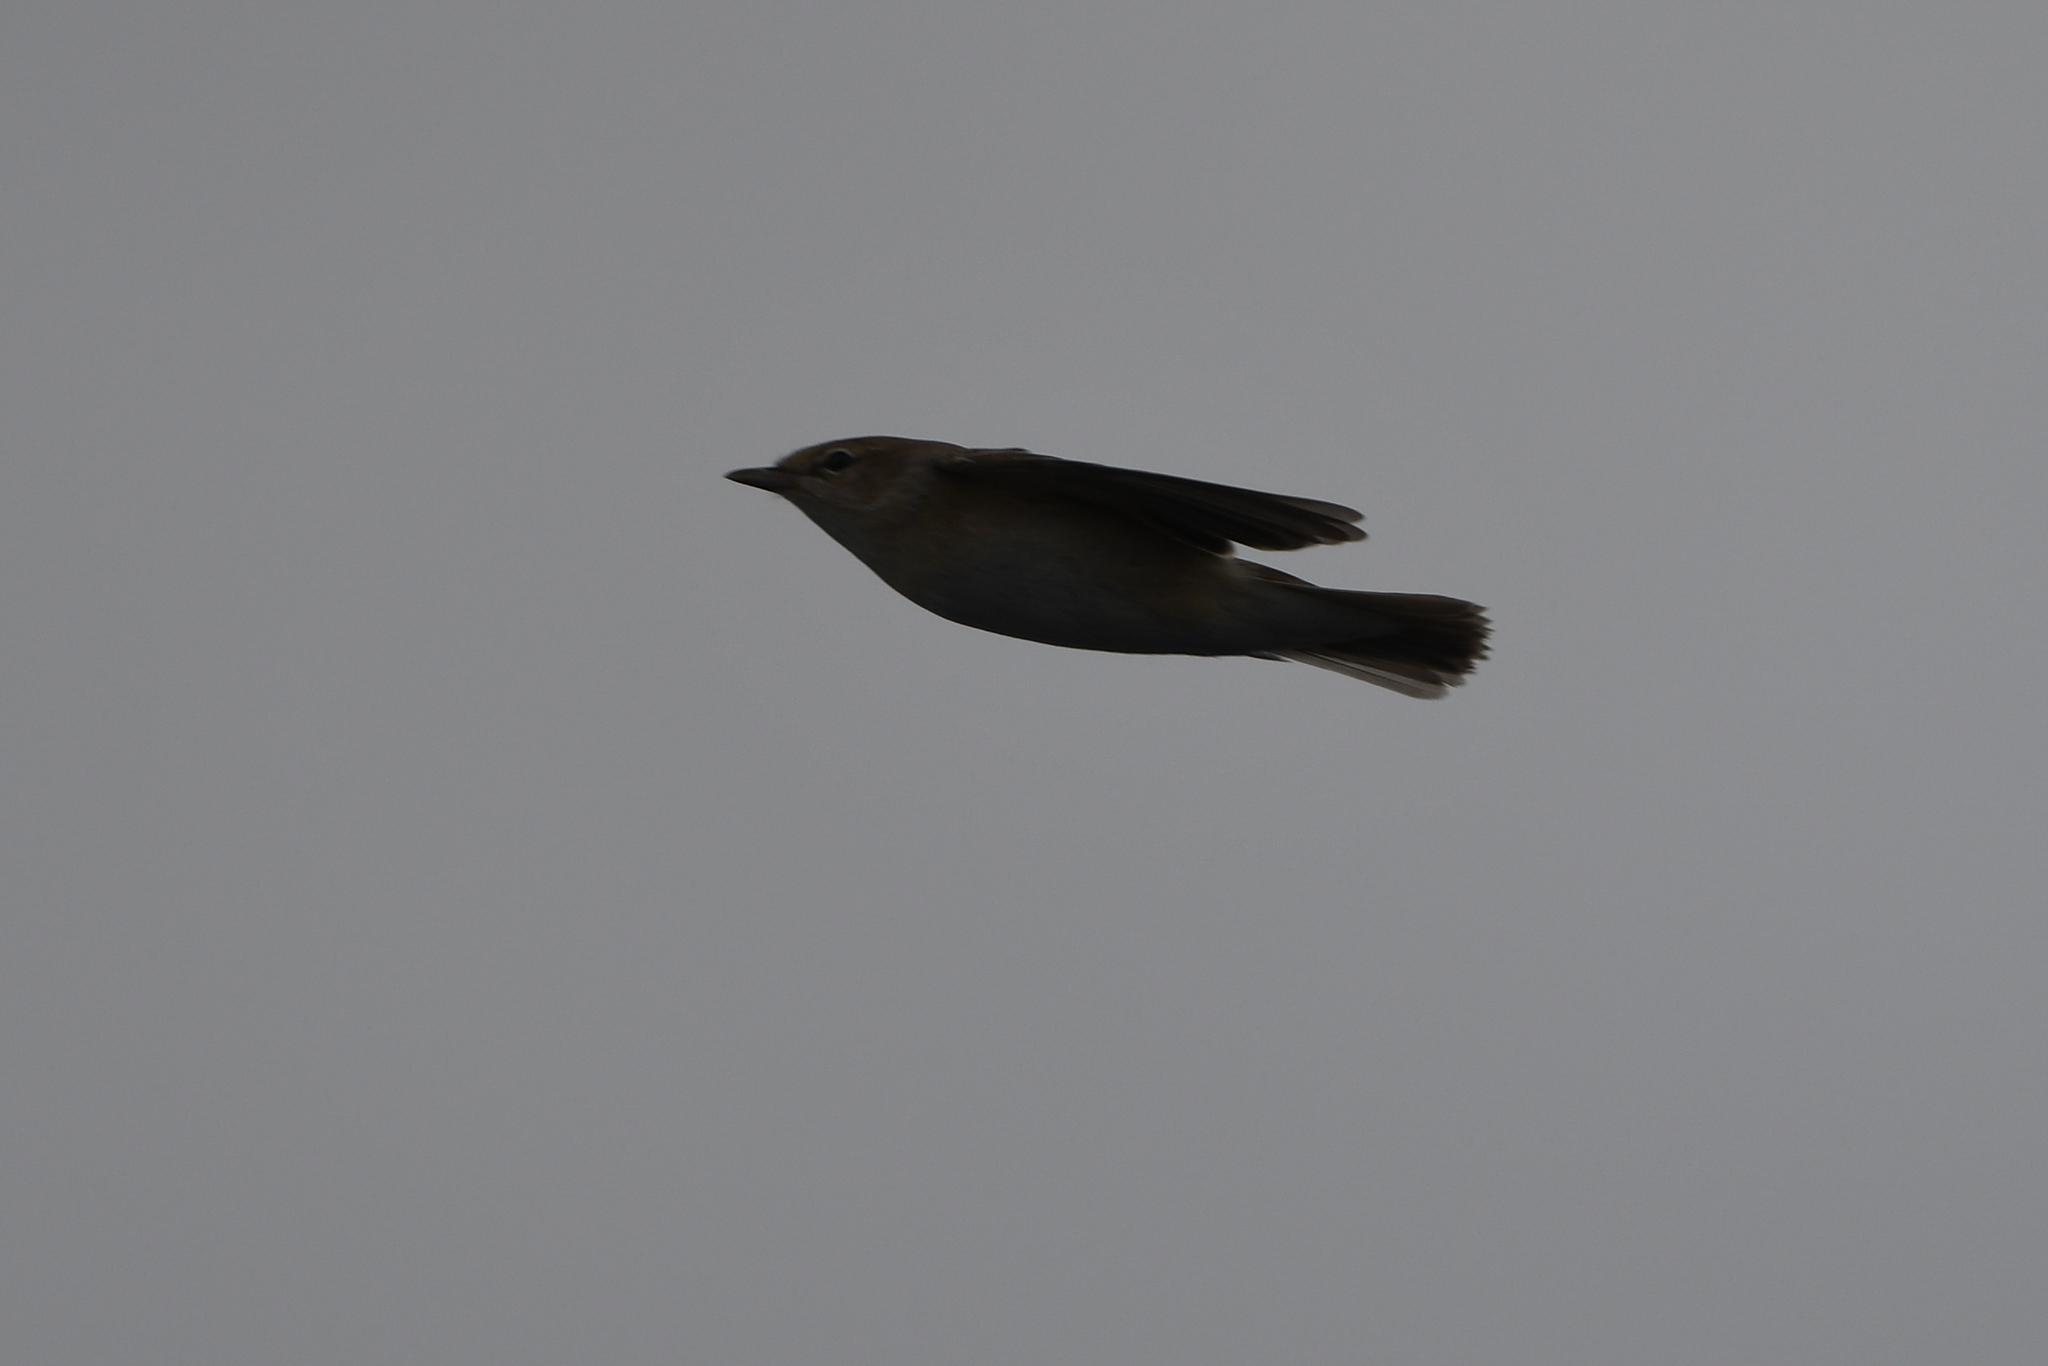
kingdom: Animalia
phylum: Chordata
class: Aves
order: Passeriformes
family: Sylviidae
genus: Sylvia
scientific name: Sylvia borin
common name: Garden warbler
